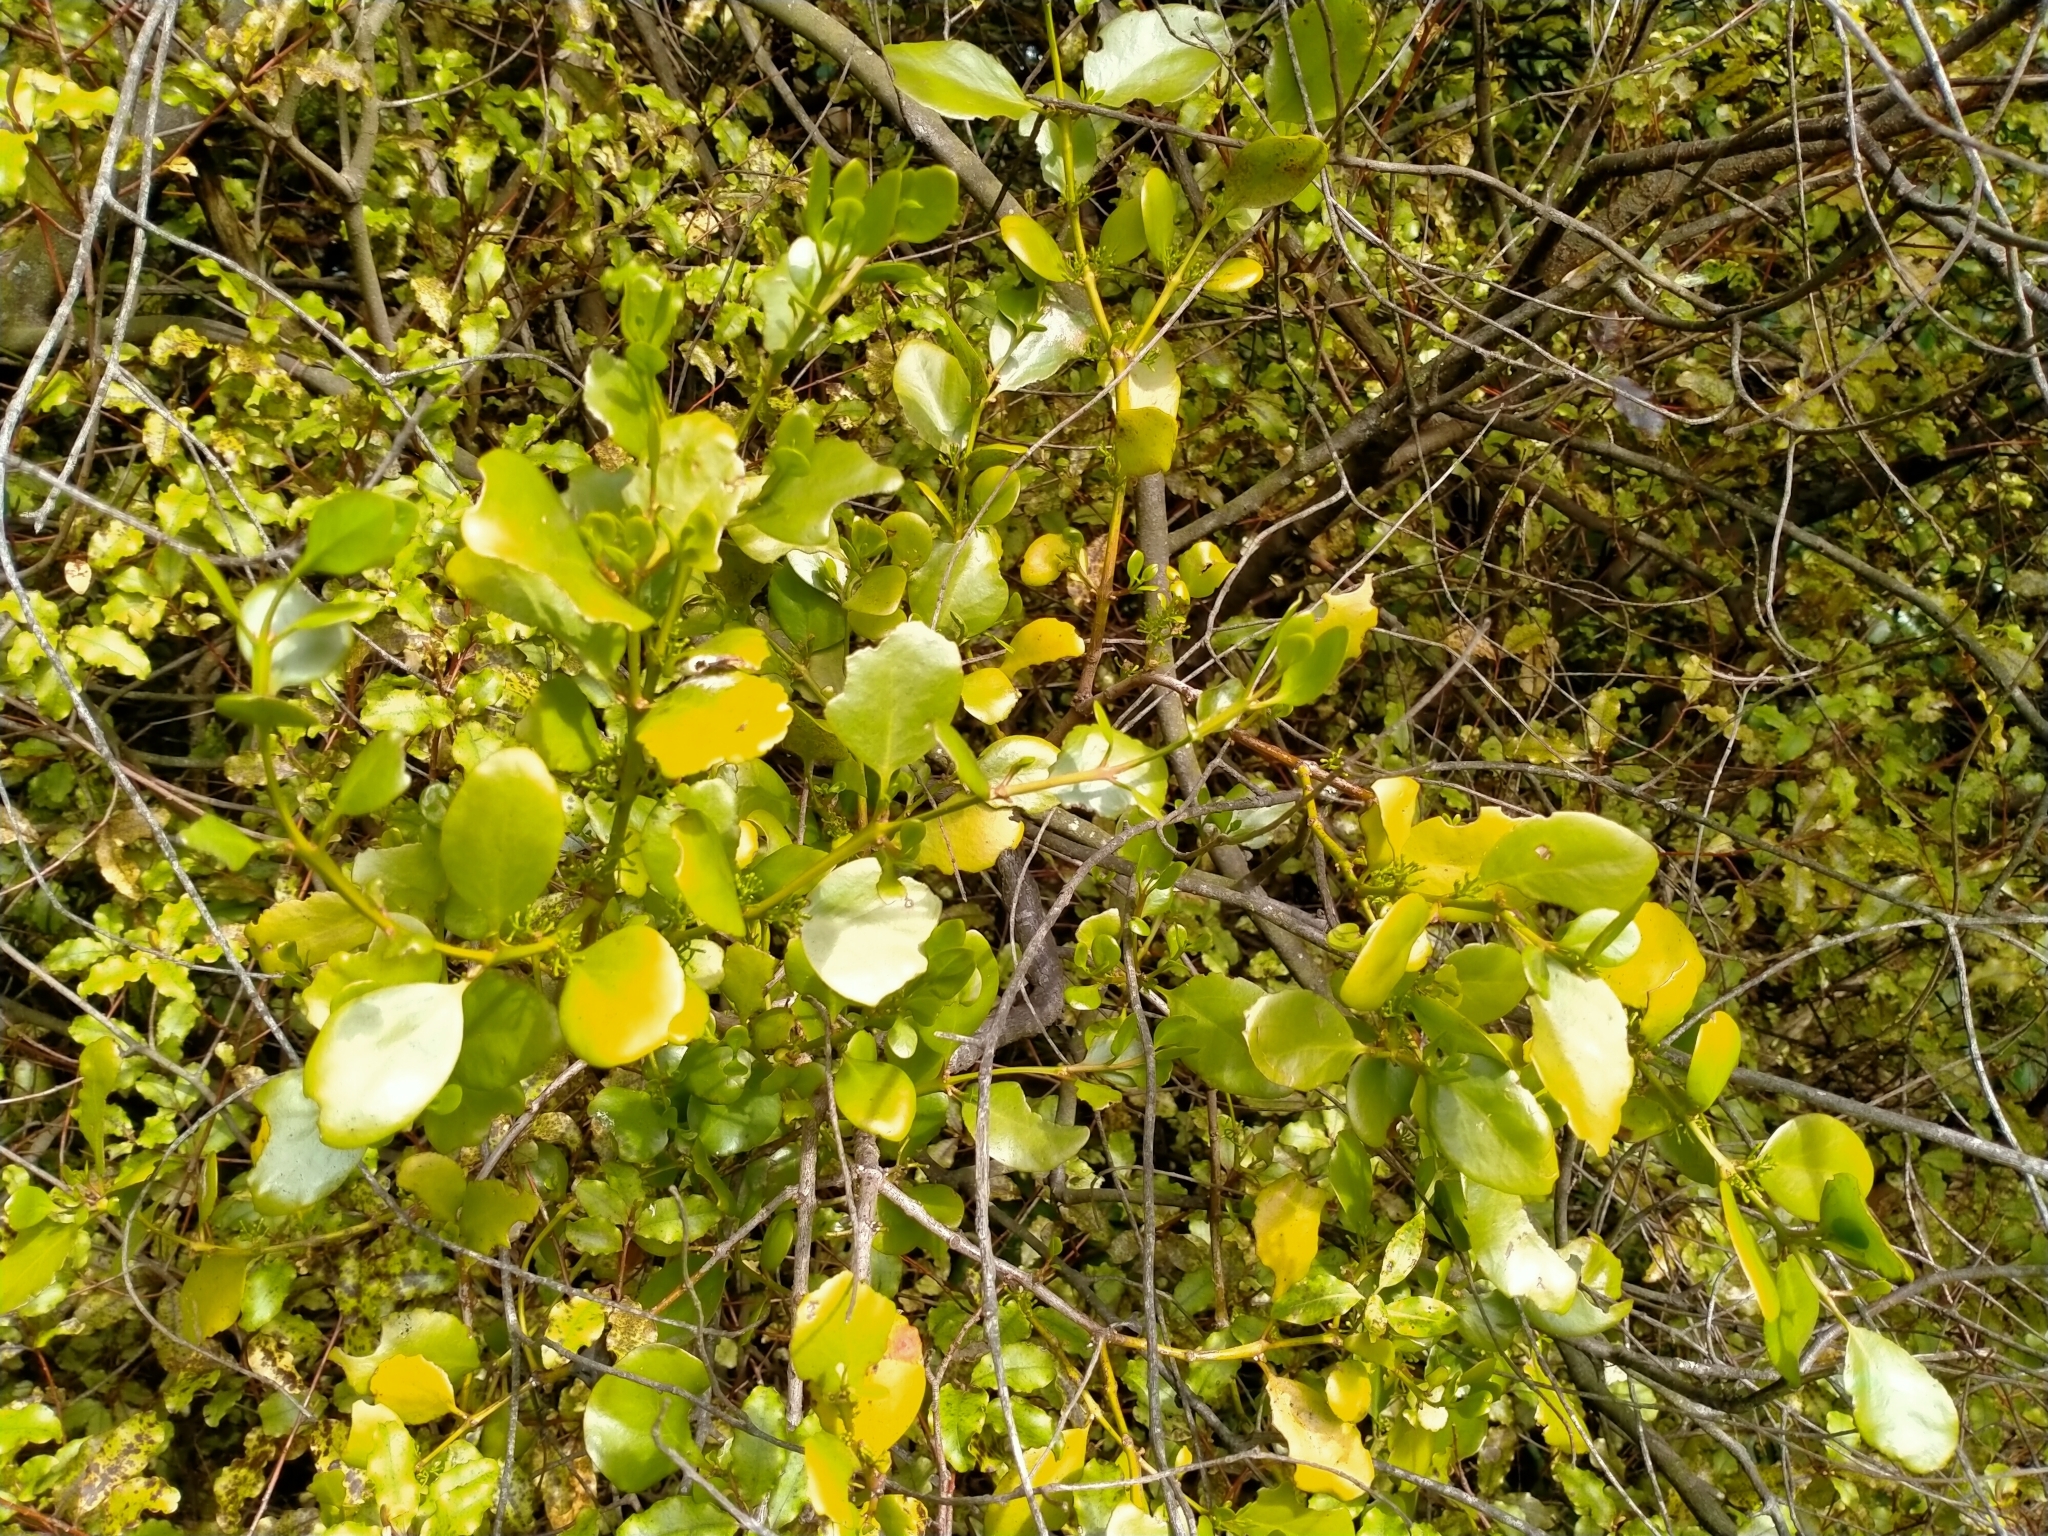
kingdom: Plantae
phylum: Tracheophyta
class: Magnoliopsida
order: Santalales
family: Loranthaceae
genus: Ileostylus
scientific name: Ileostylus micranthus
